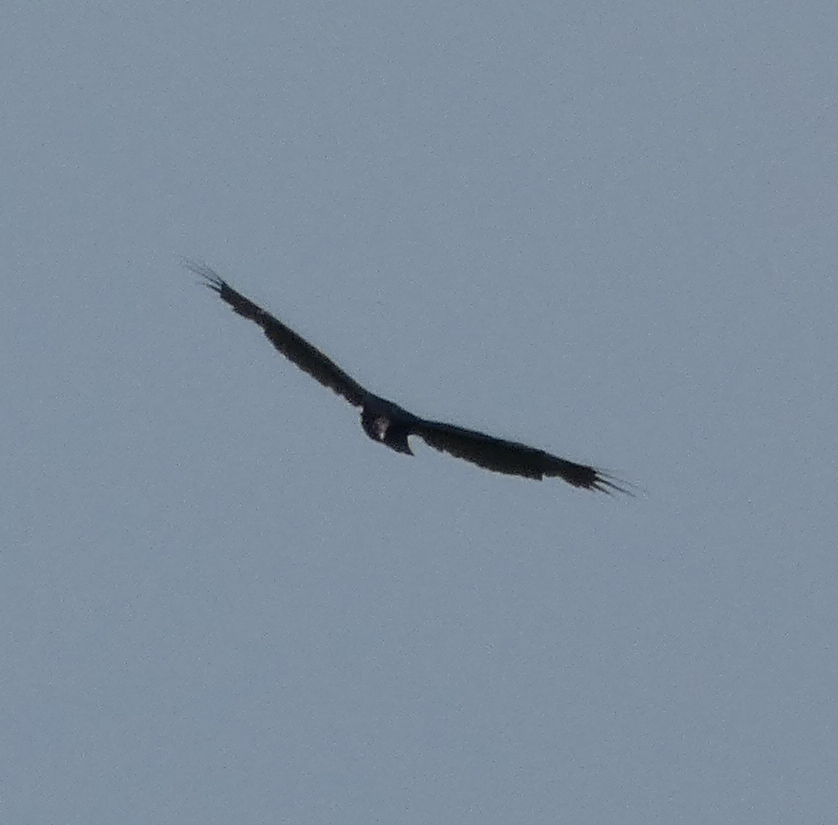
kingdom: Animalia
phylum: Chordata
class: Aves
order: Accipitriformes
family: Cathartidae
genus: Cathartes
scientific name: Cathartes aura
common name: Turkey vulture
